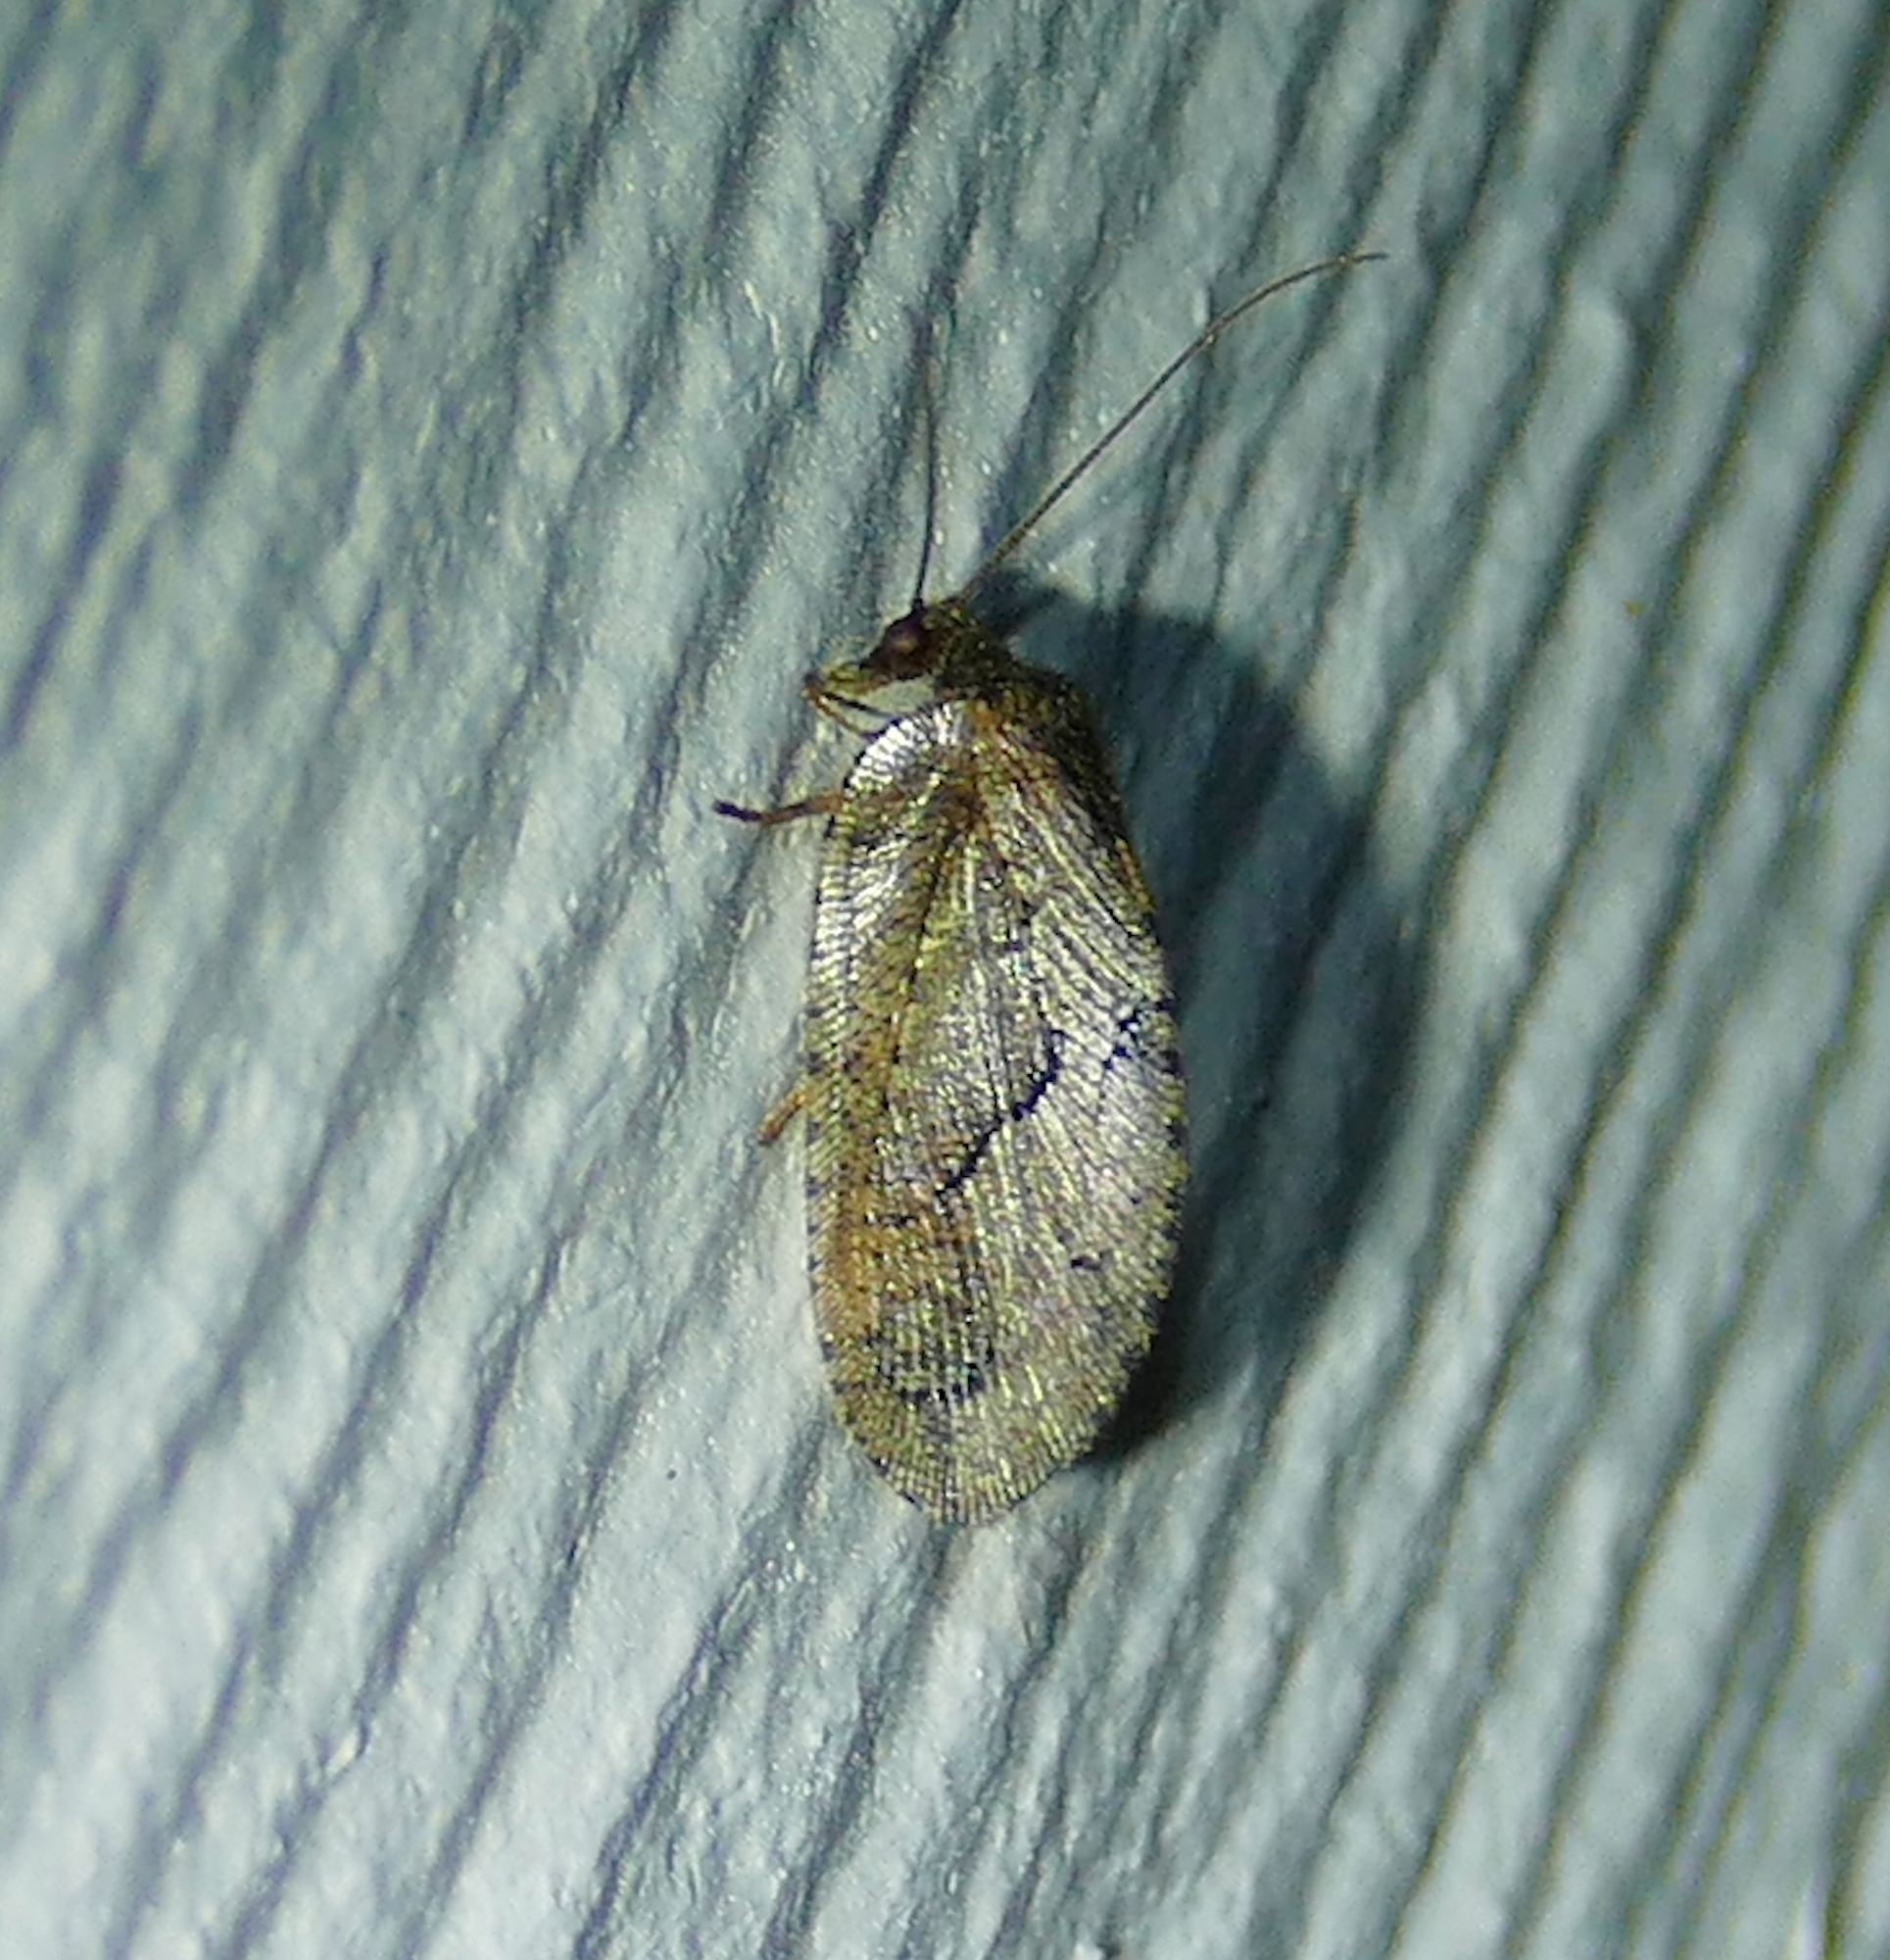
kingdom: Animalia
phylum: Arthropoda
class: Insecta
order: Neuroptera
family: Hemerobiidae
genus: Megalomus
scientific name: Megalomus moestus
